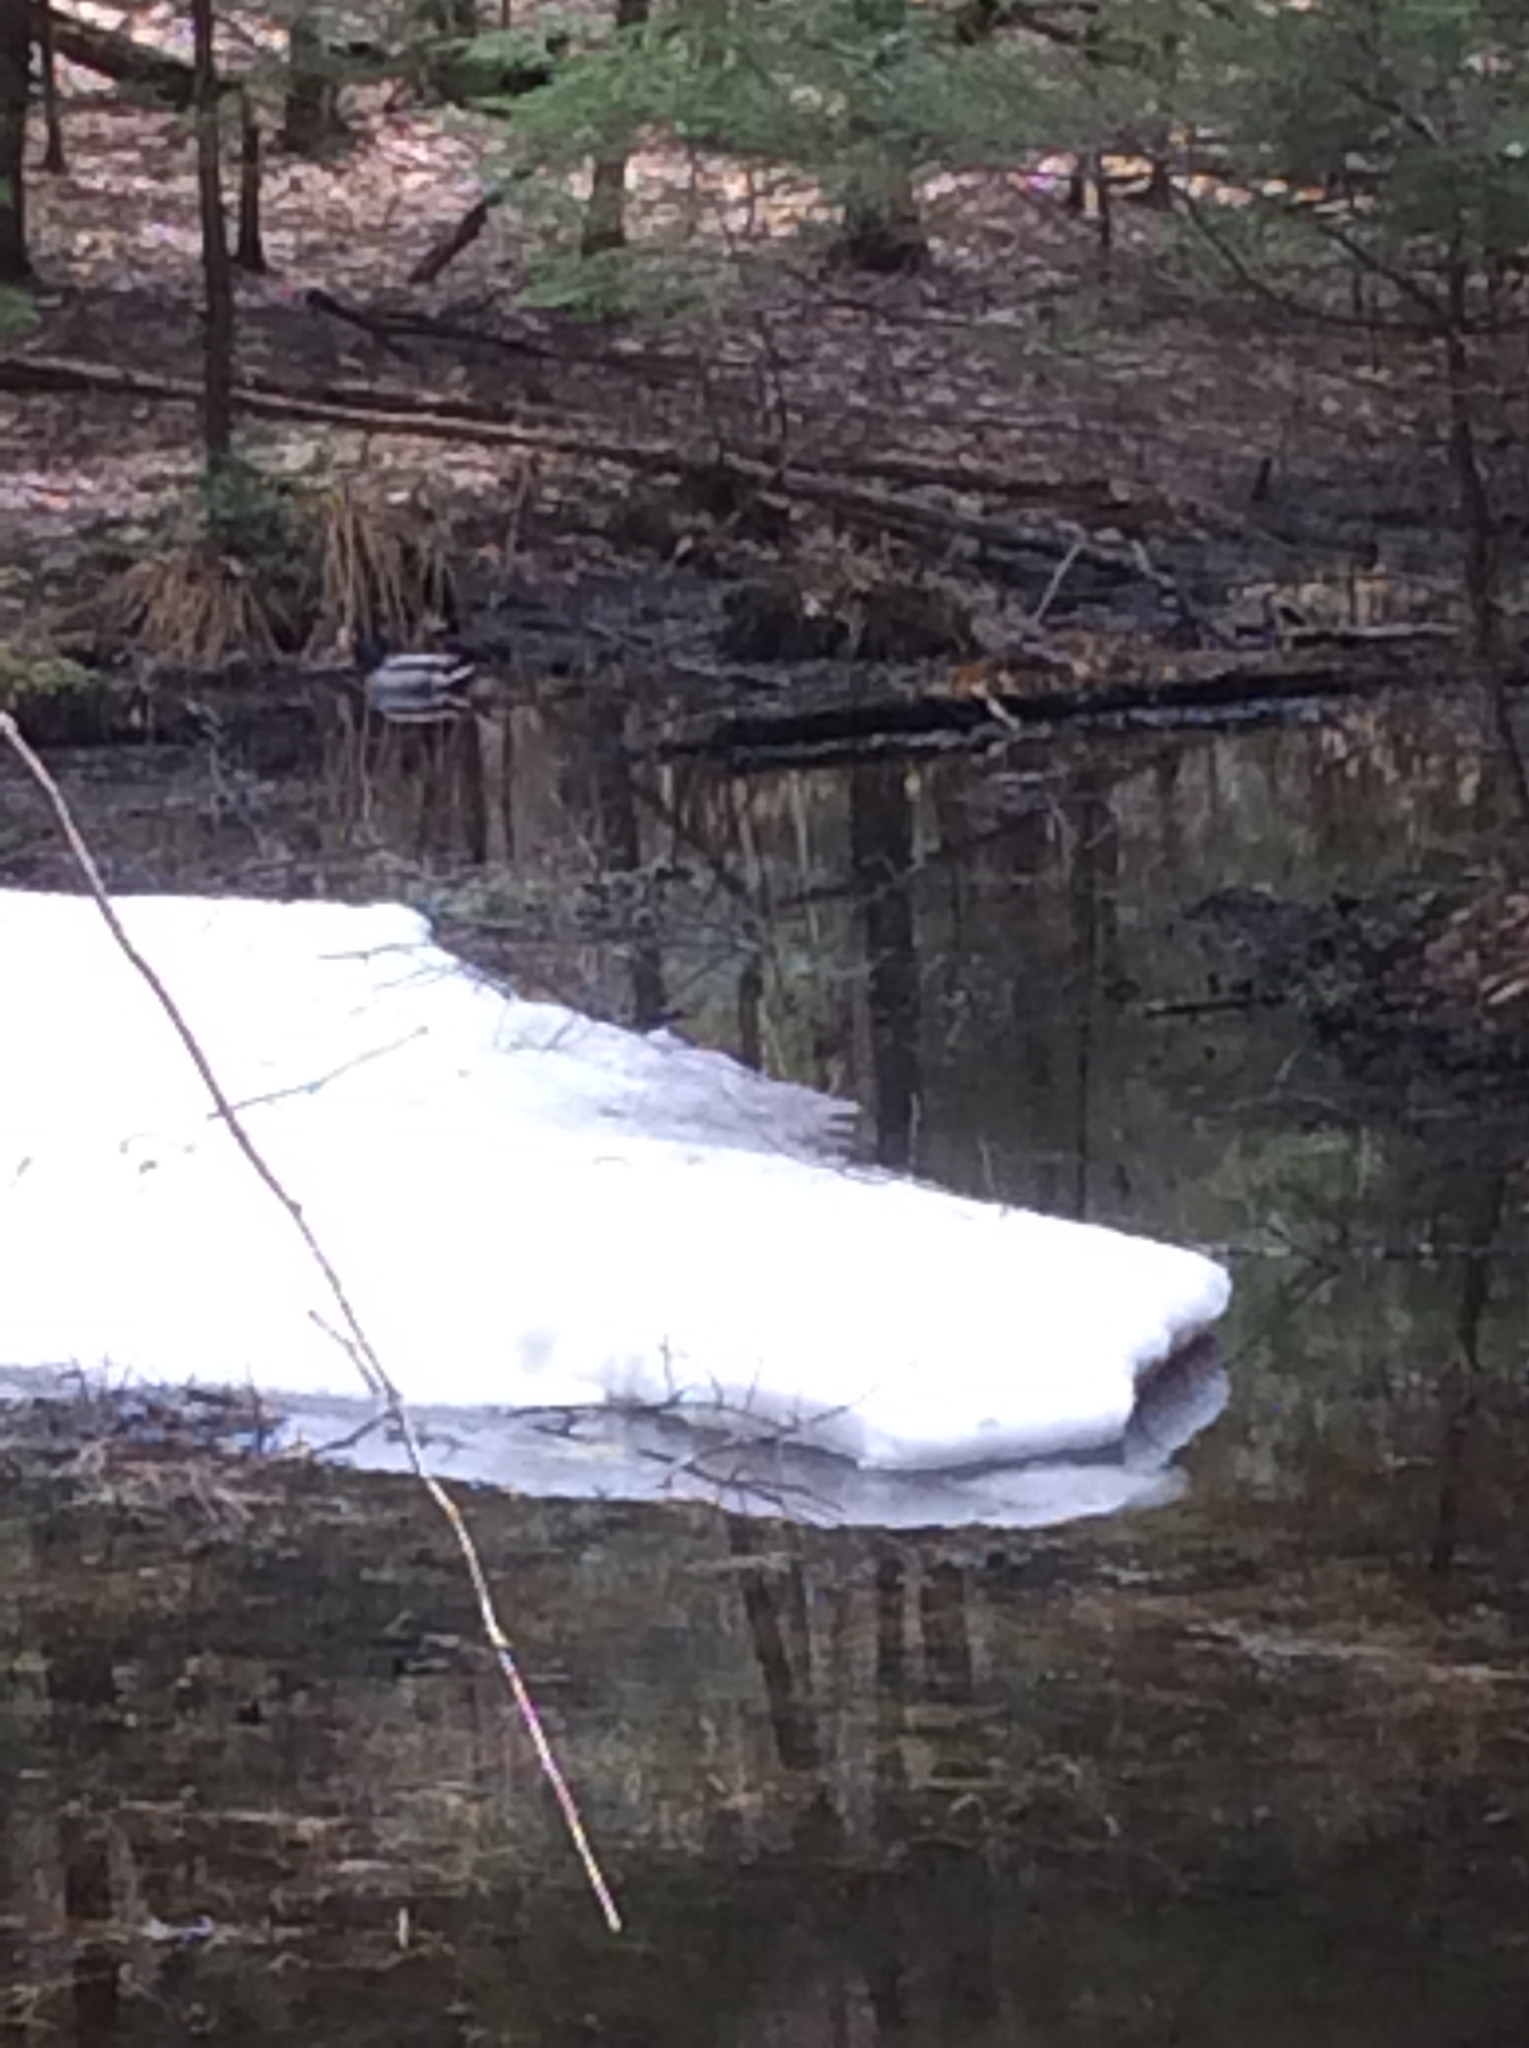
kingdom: Animalia
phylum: Chordata
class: Aves
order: Anseriformes
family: Anatidae
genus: Anas
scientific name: Anas platyrhynchos
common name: Mallard
